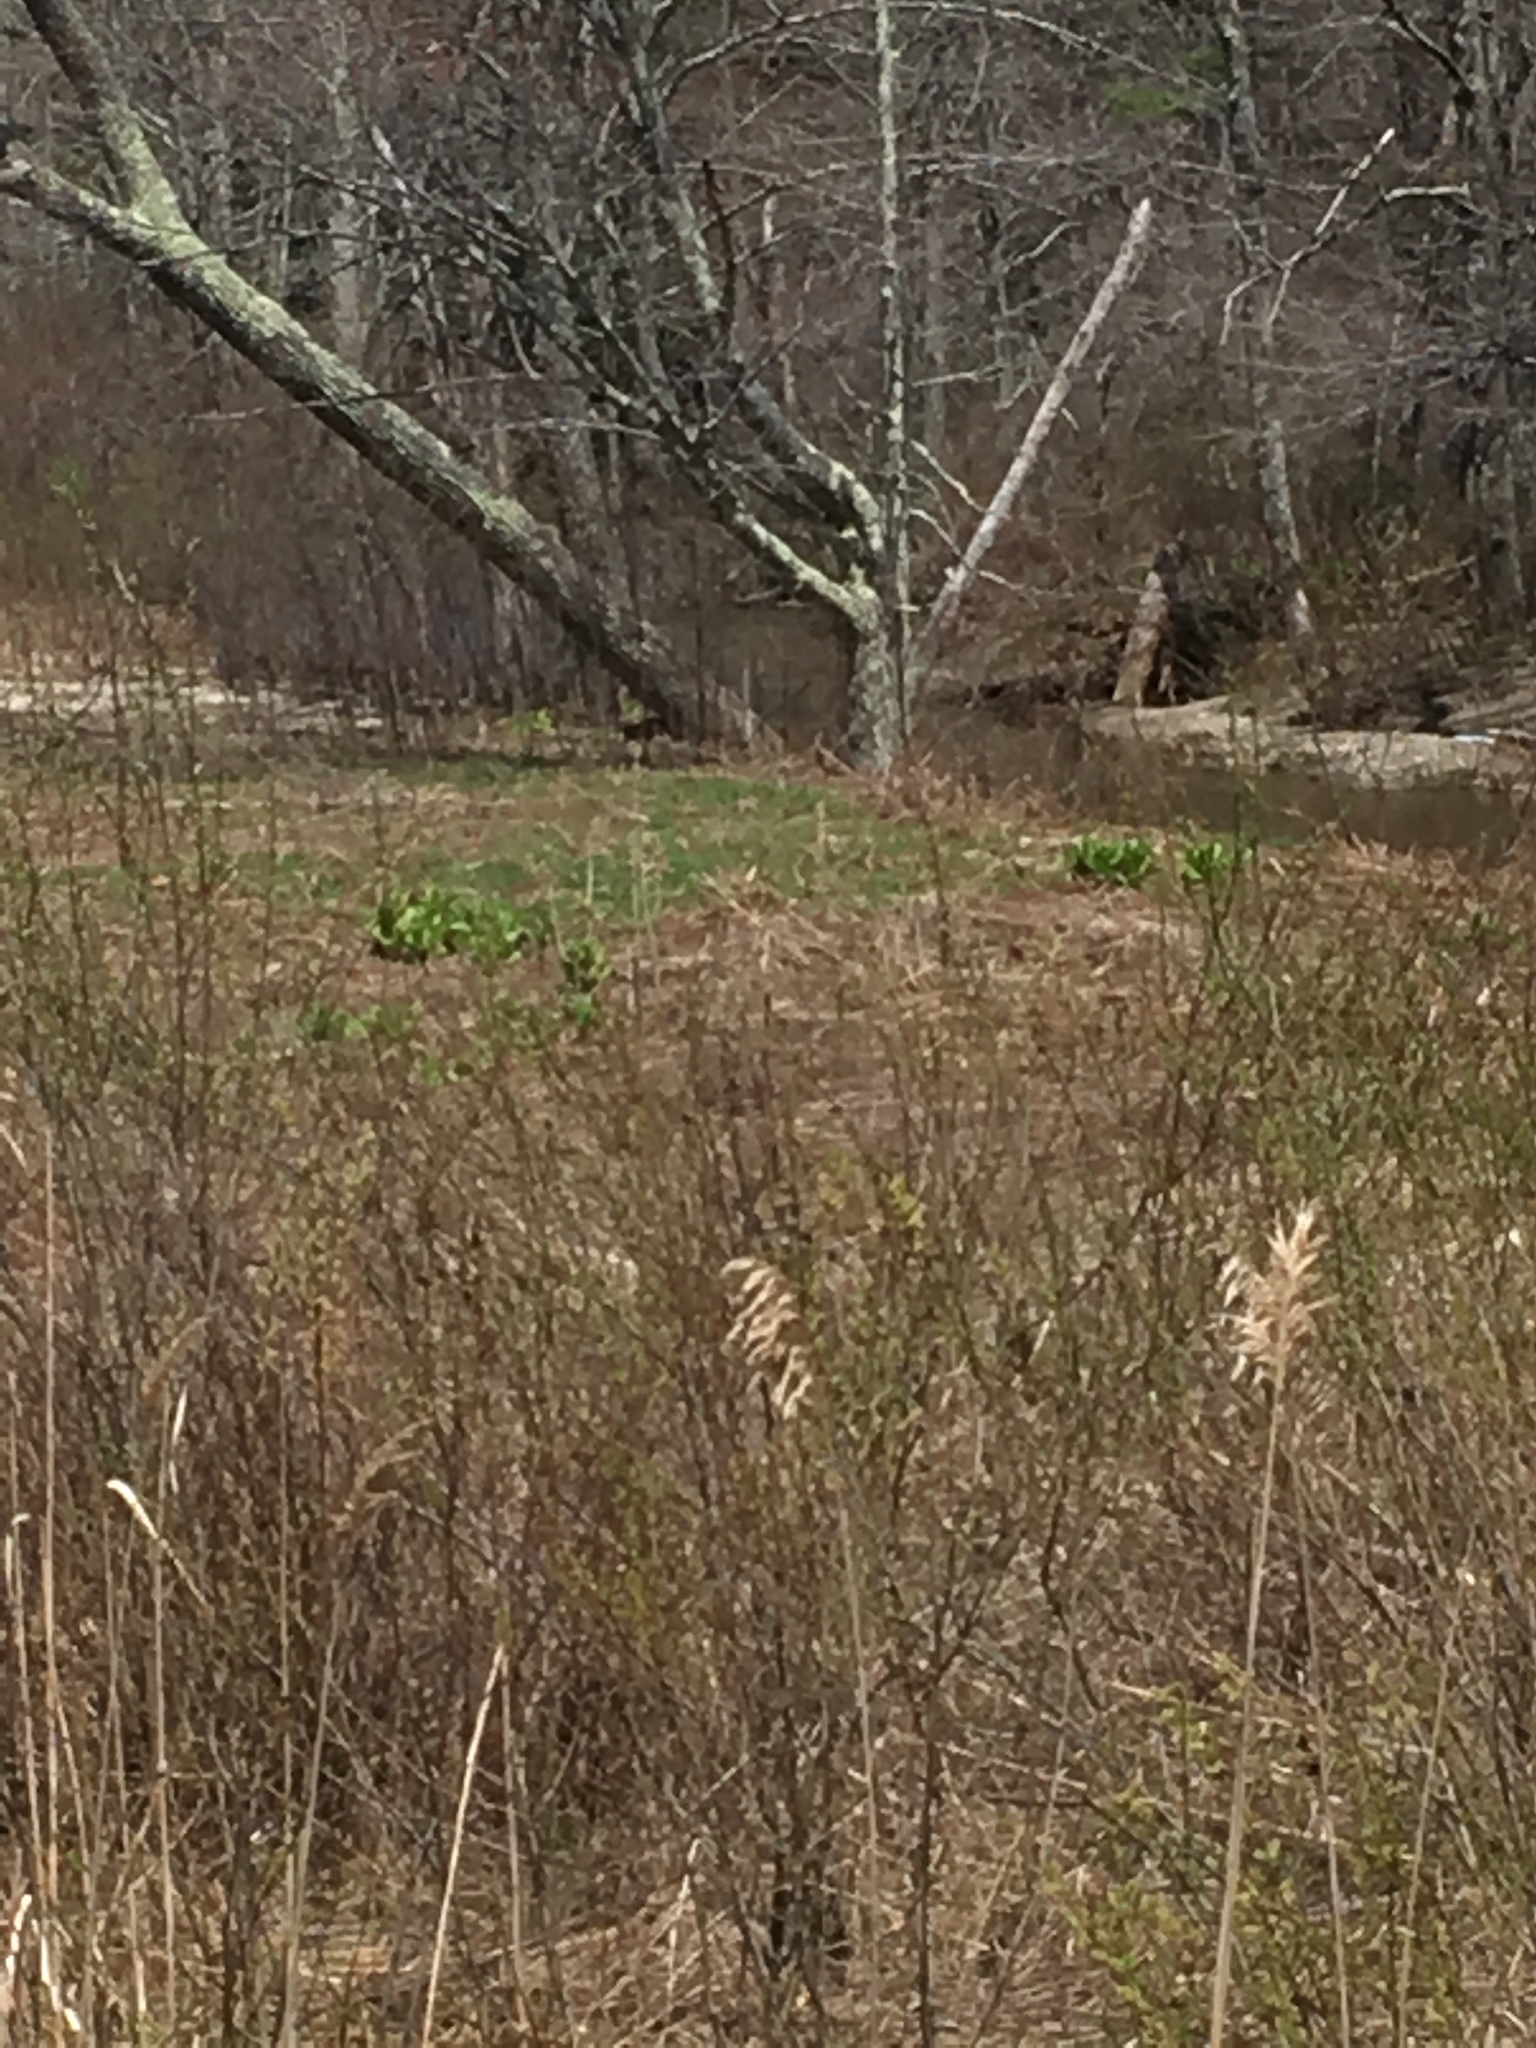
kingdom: Plantae
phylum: Tracheophyta
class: Liliopsida
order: Liliales
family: Melanthiaceae
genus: Veratrum
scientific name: Veratrum viride
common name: American false hellebore
